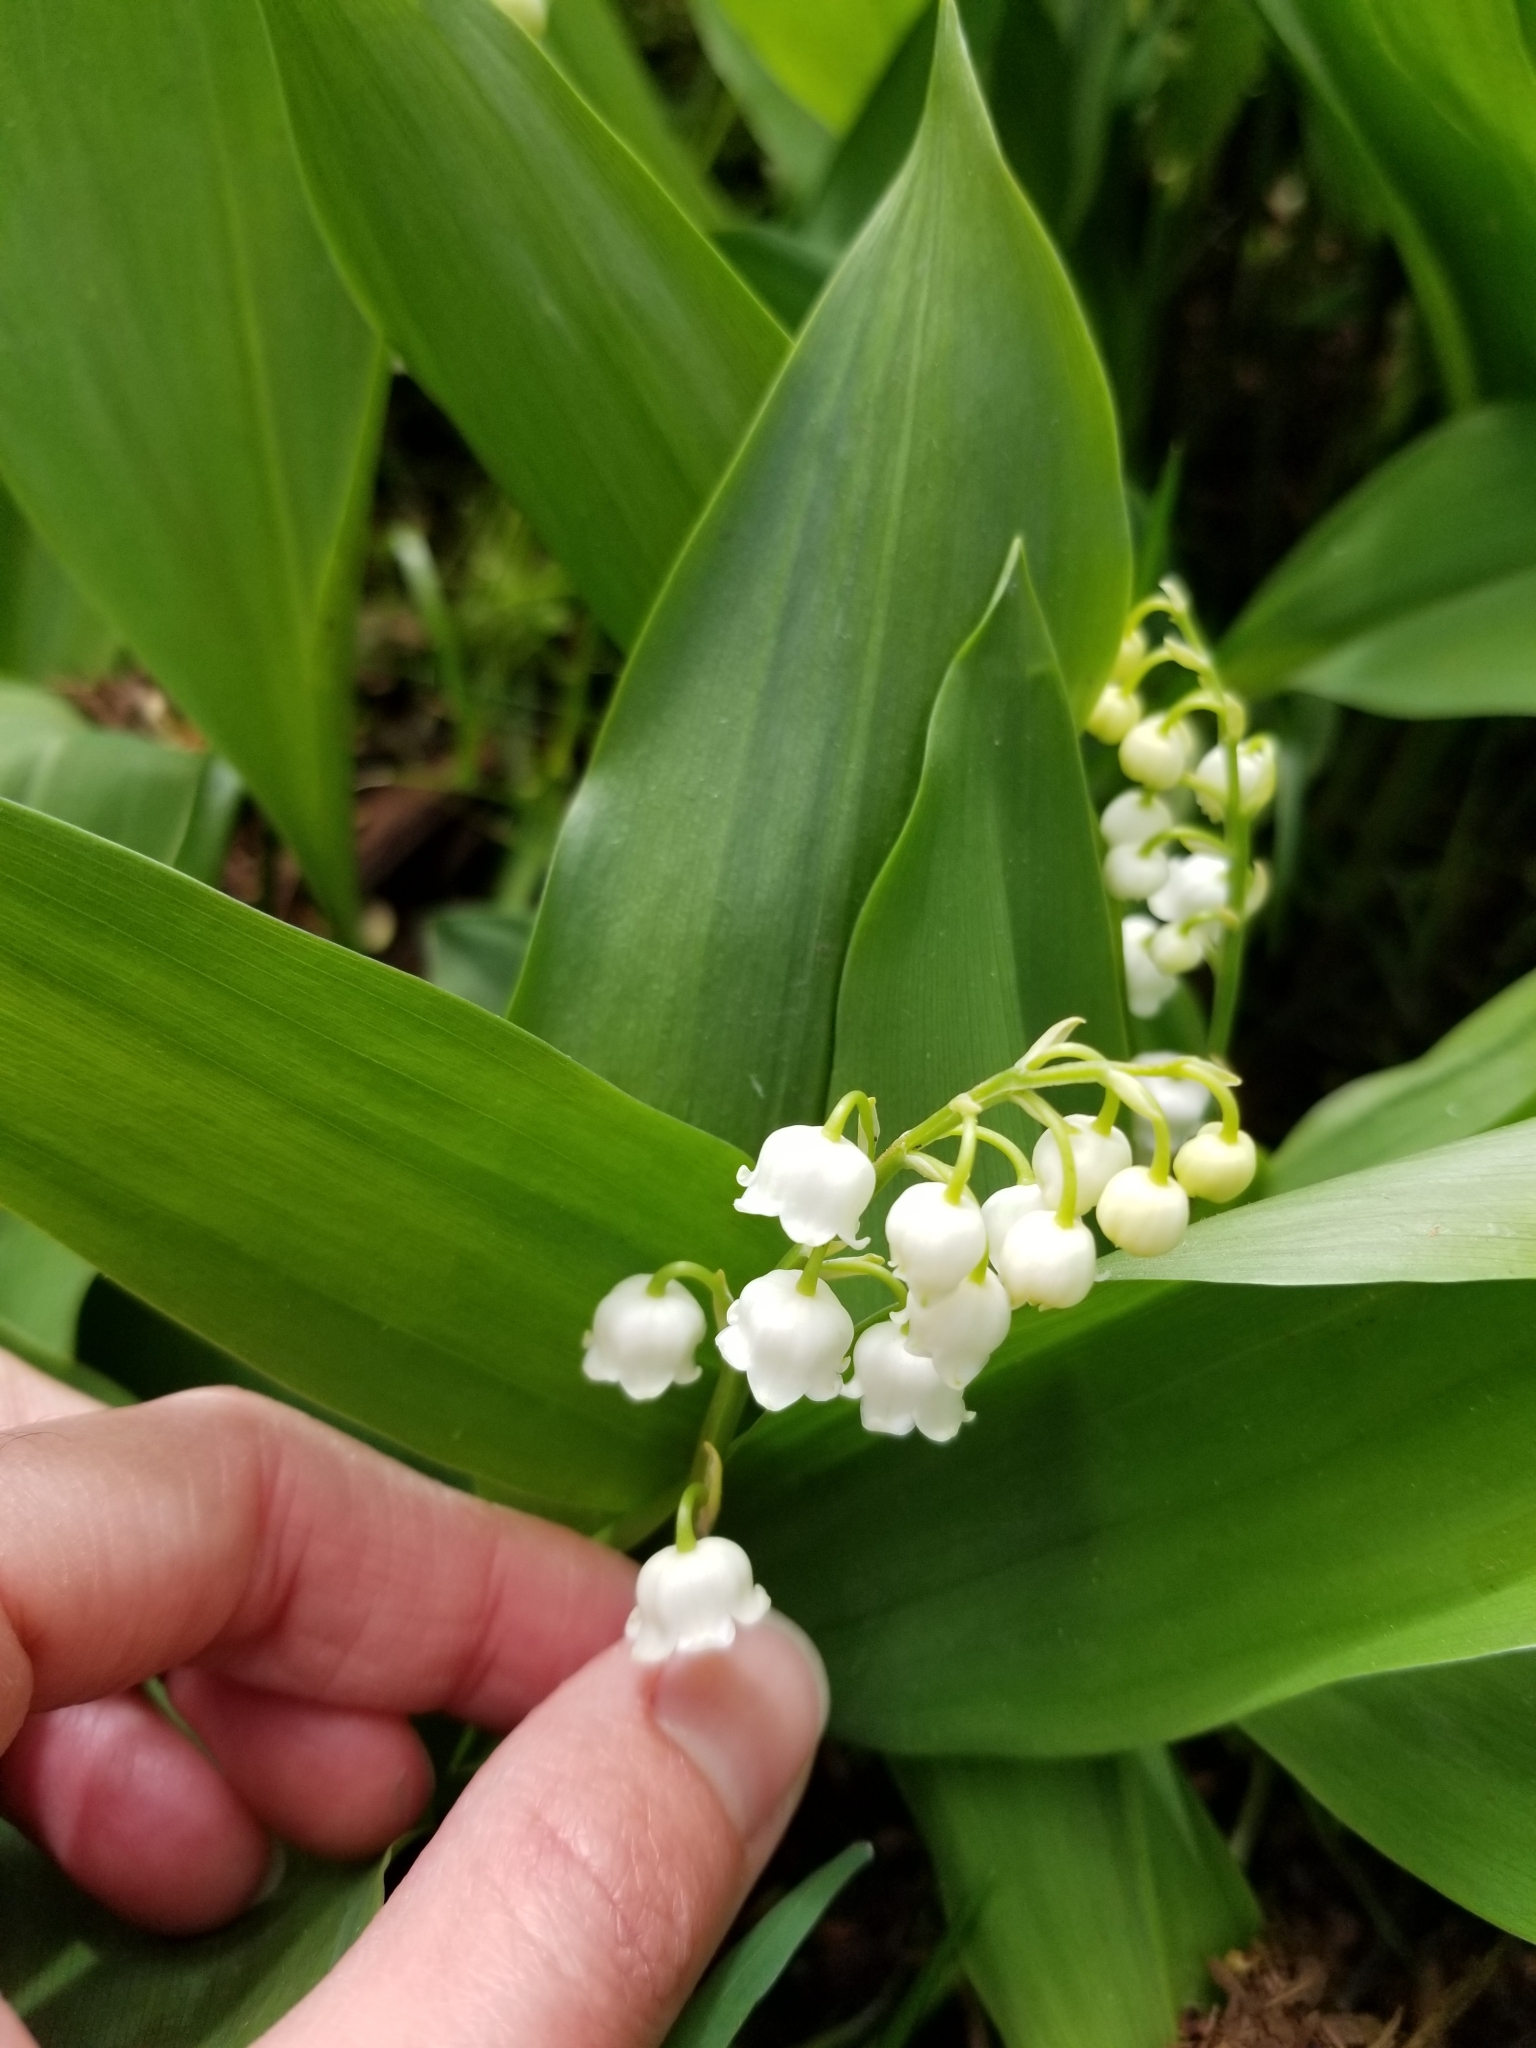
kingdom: Plantae
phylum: Tracheophyta
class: Liliopsida
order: Asparagales
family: Asparagaceae
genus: Convallaria
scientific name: Convallaria majalis
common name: Lily-of-the-valley
